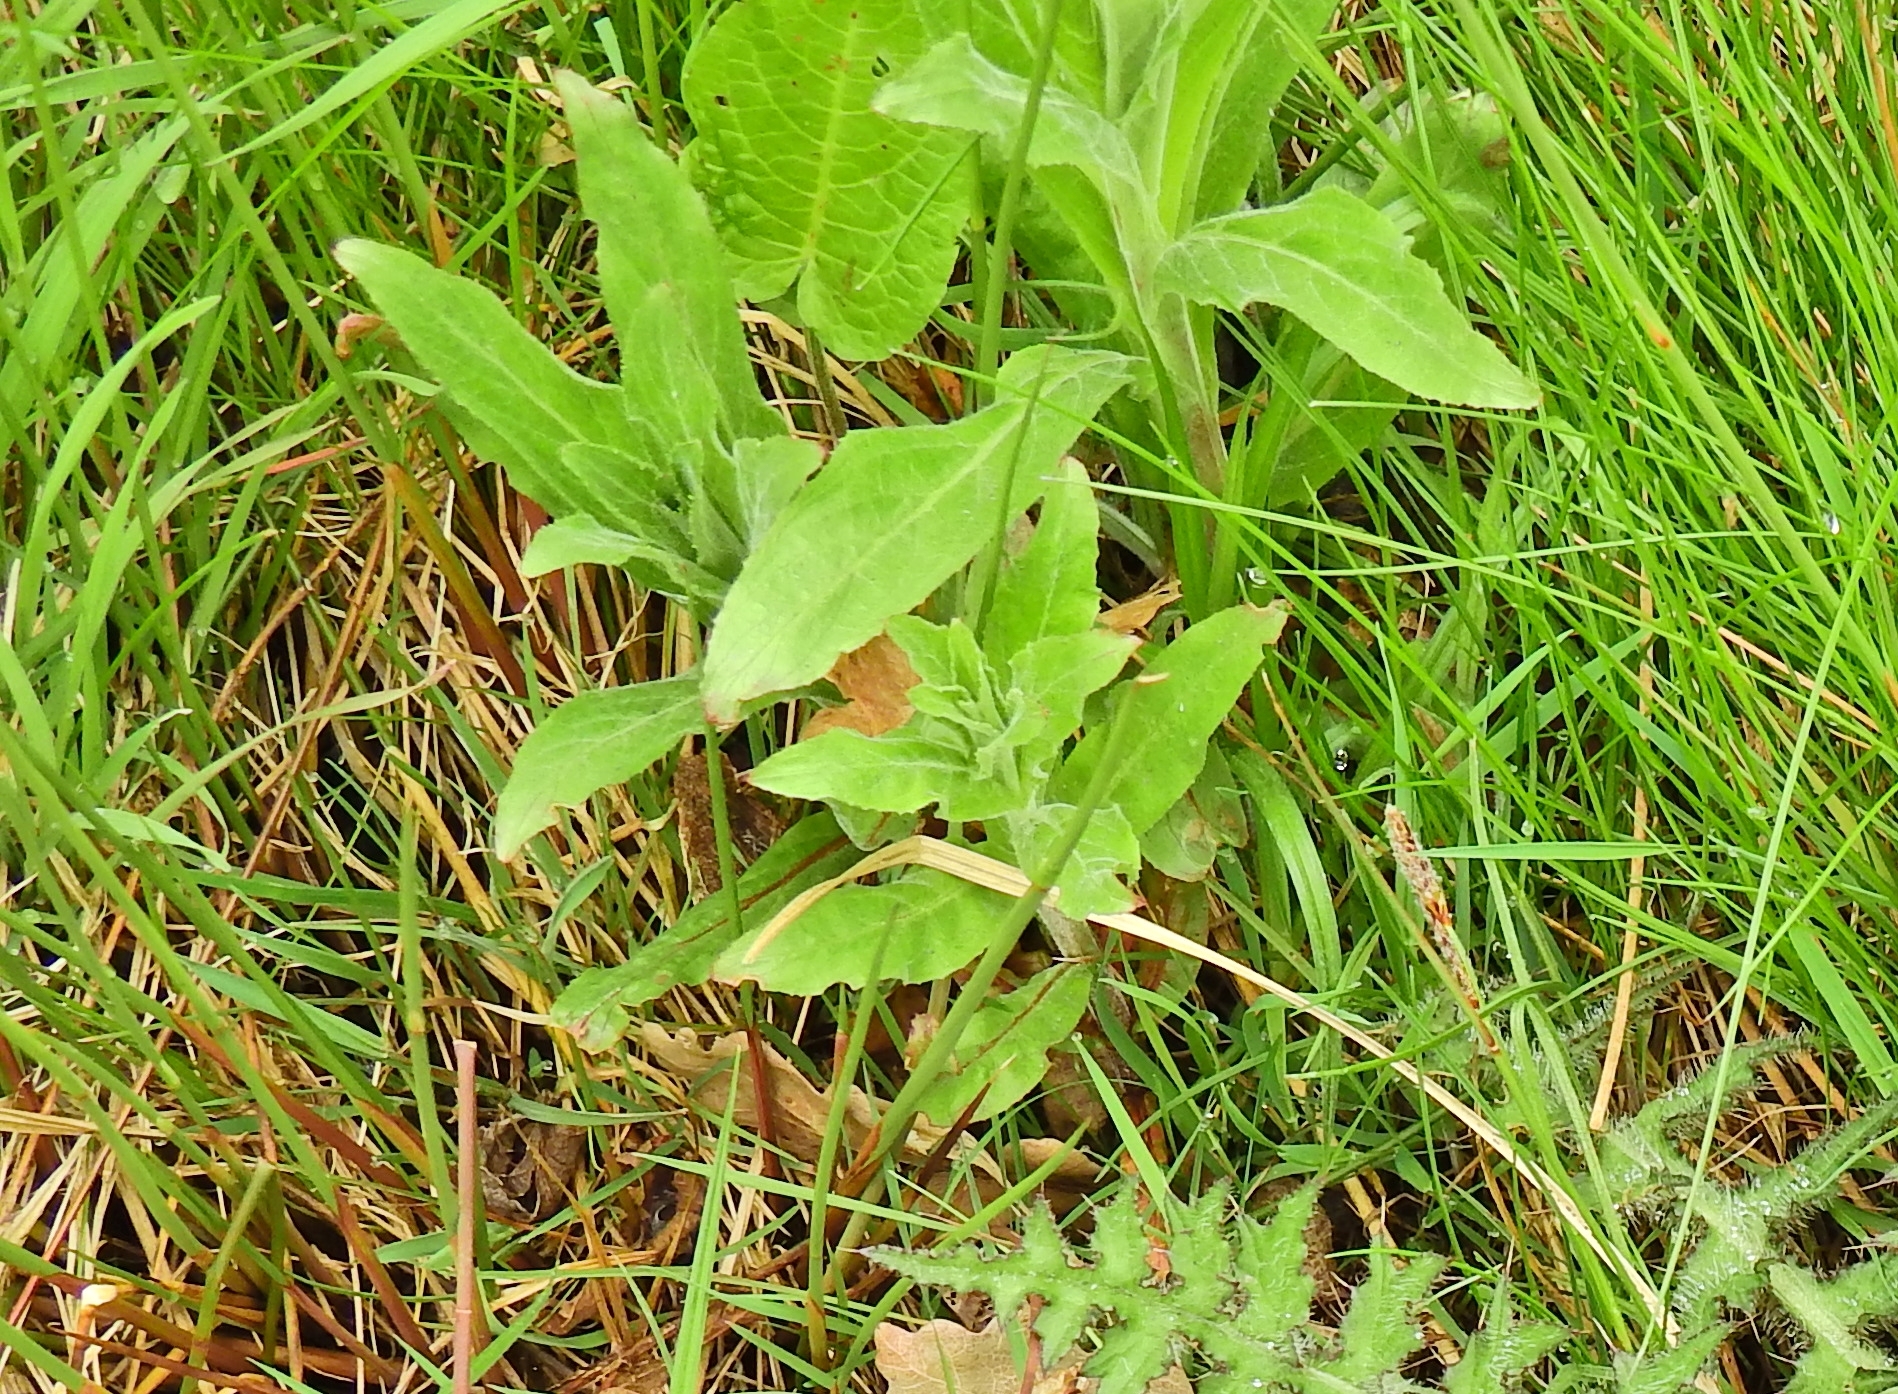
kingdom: Plantae
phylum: Tracheophyta
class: Magnoliopsida
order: Myrtales
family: Onagraceae
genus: Epilobium
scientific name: Epilobium hirsutum
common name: Great willowherb
